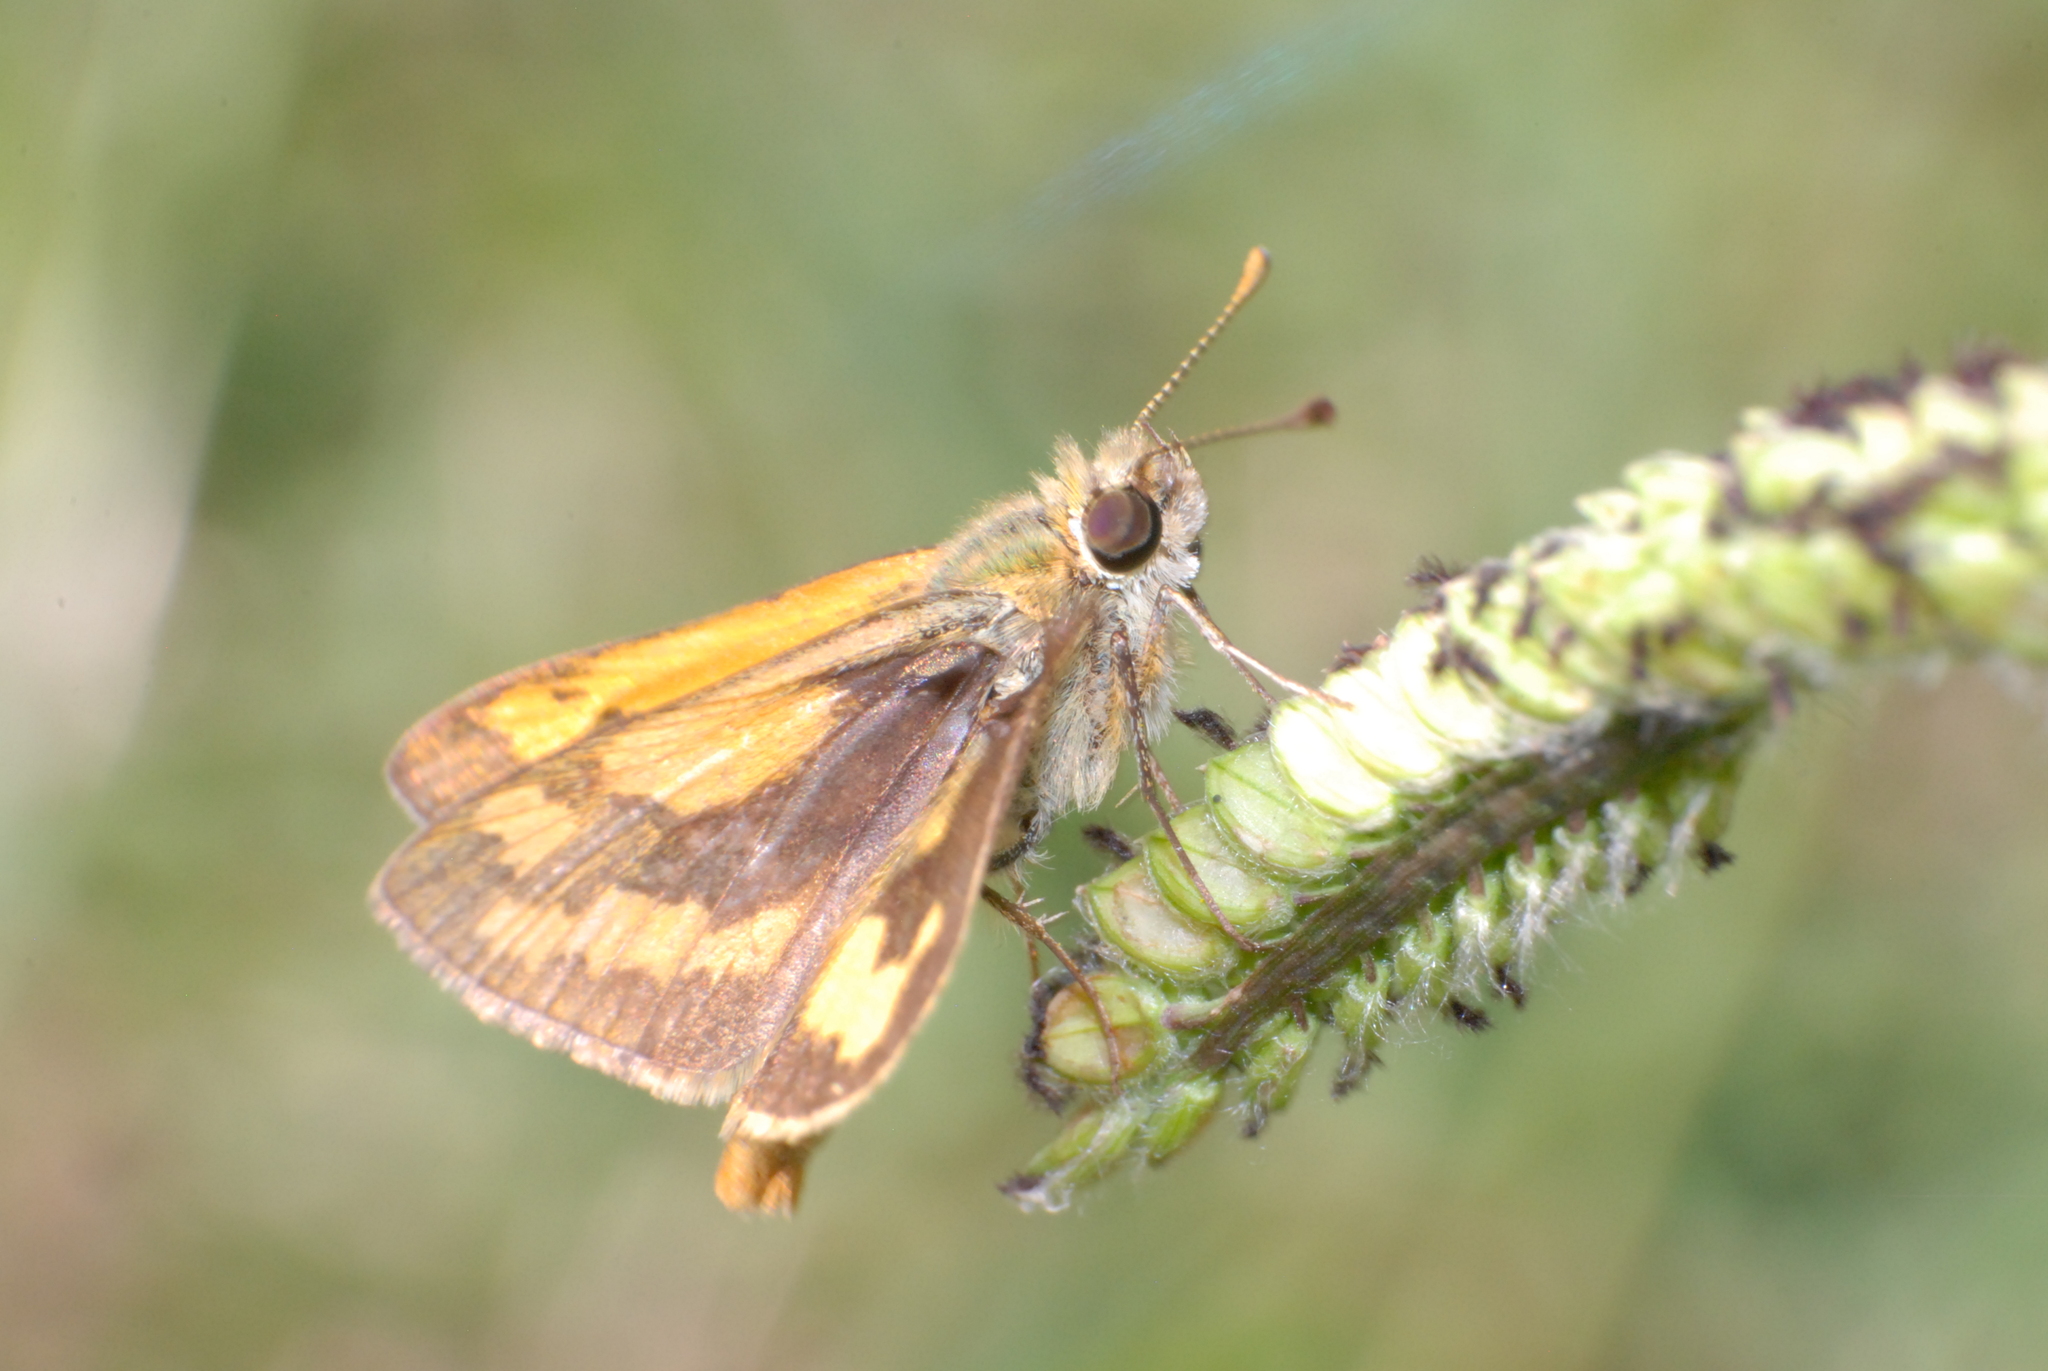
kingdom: Animalia
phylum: Arthropoda
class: Insecta
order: Lepidoptera
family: Hesperiidae
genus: Ocybadistes
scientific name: Ocybadistes walkeri
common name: Yellow-banded dart
